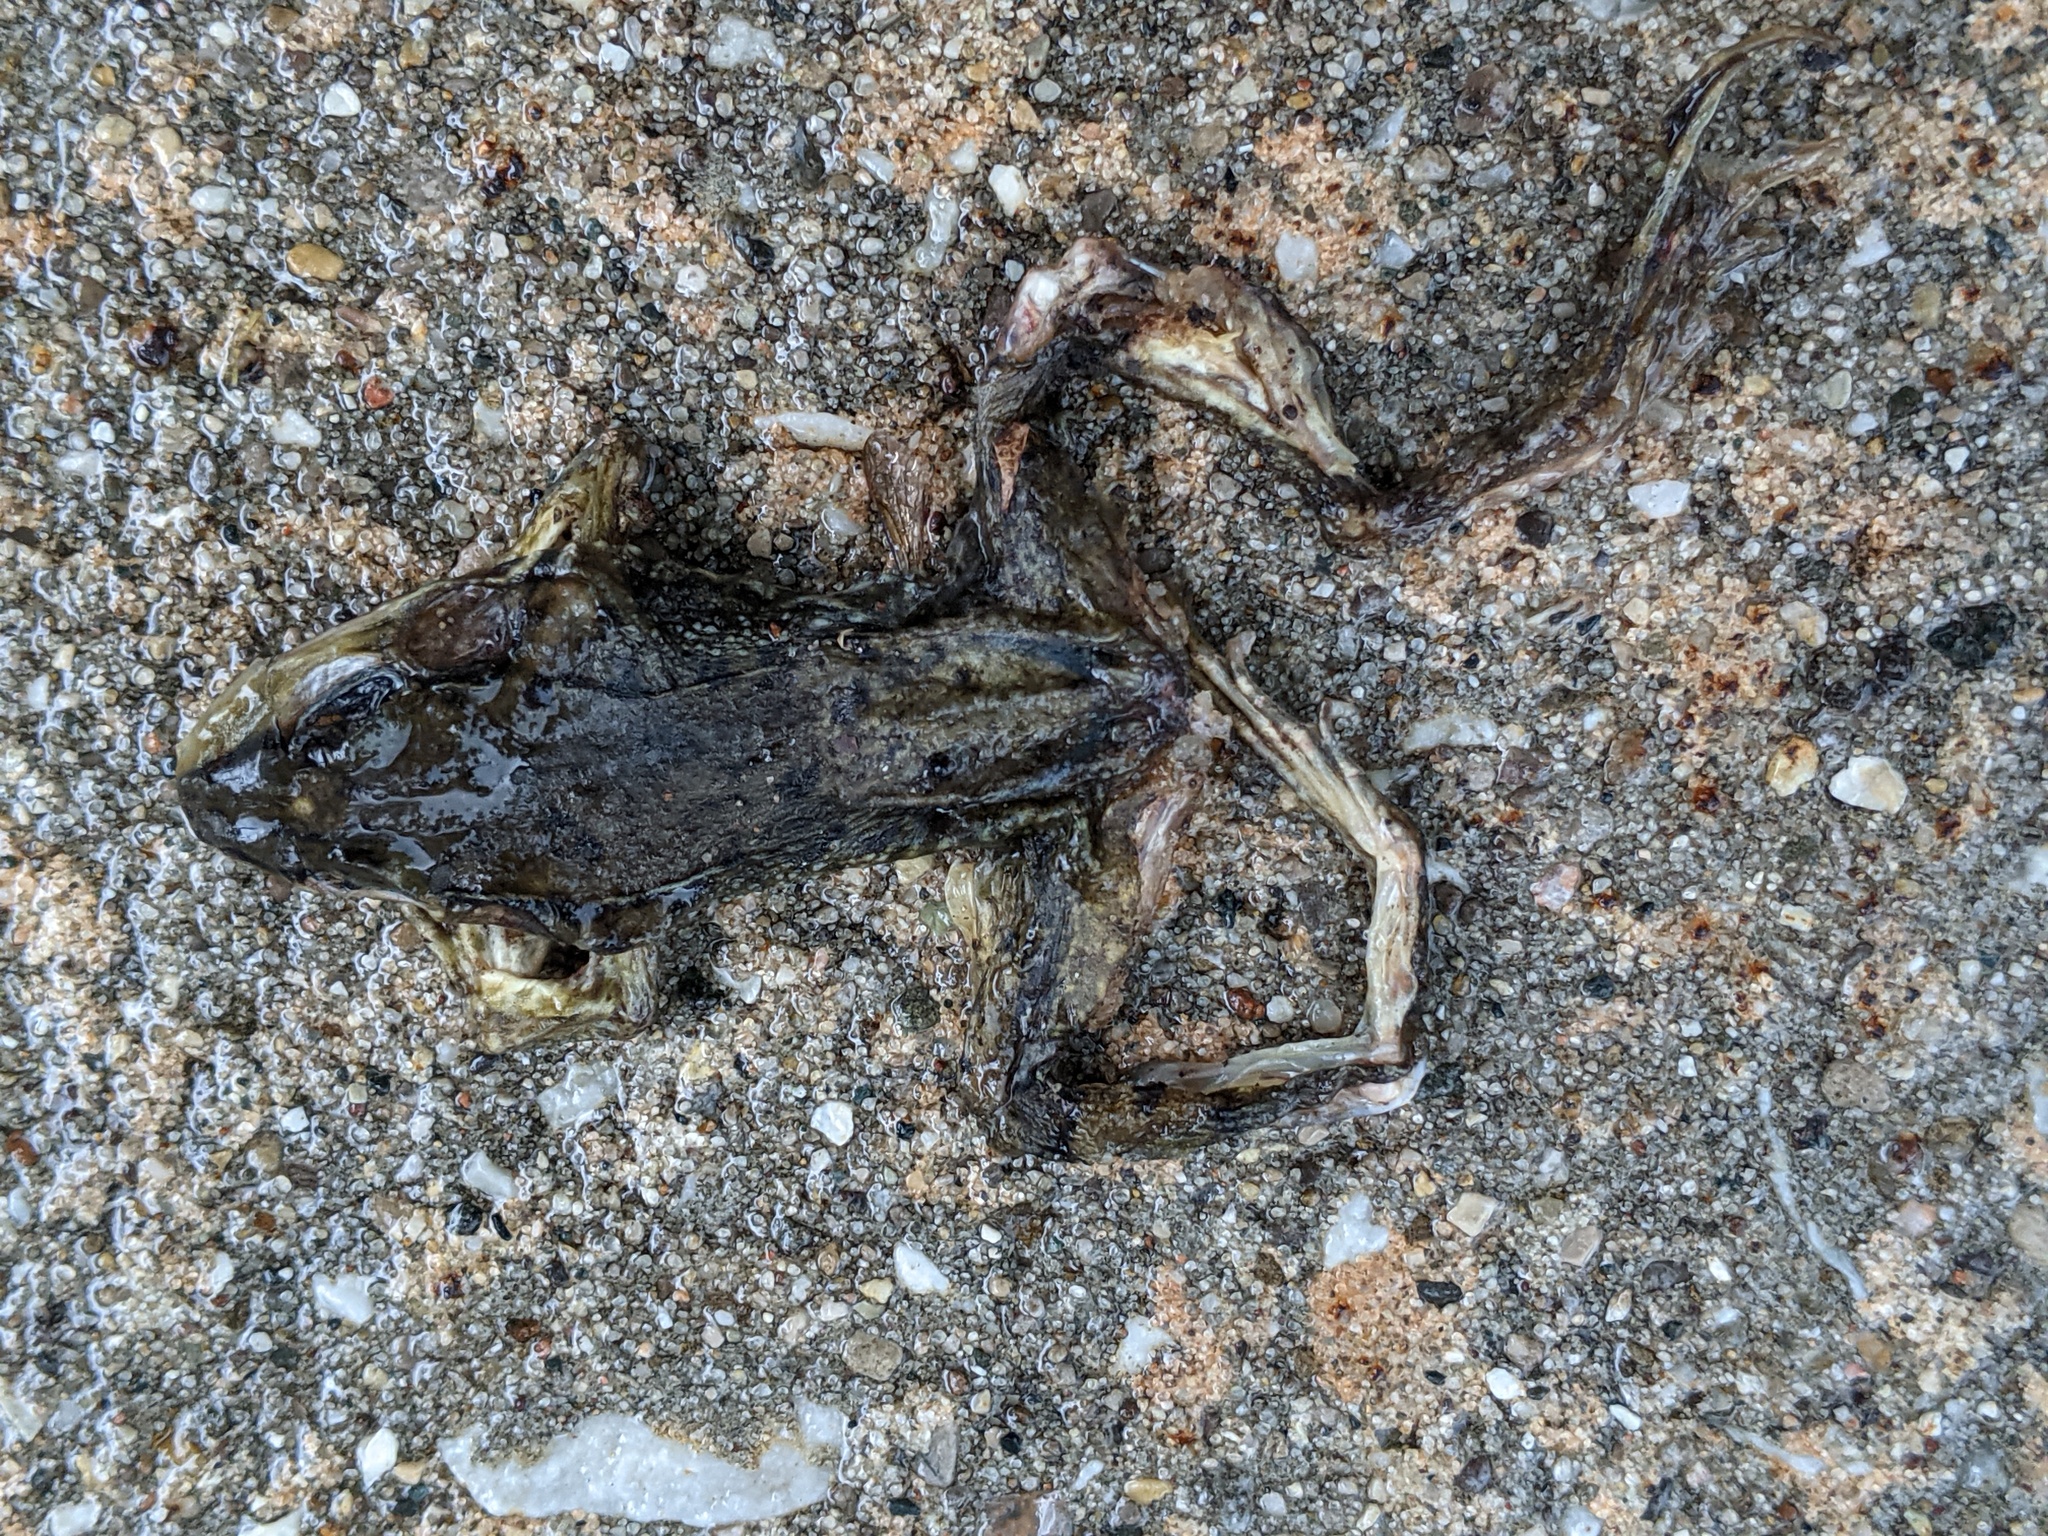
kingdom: Animalia
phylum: Chordata
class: Amphibia
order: Anura
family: Ranidae
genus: Lithobates
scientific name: Lithobates clamitans
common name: Green frog
